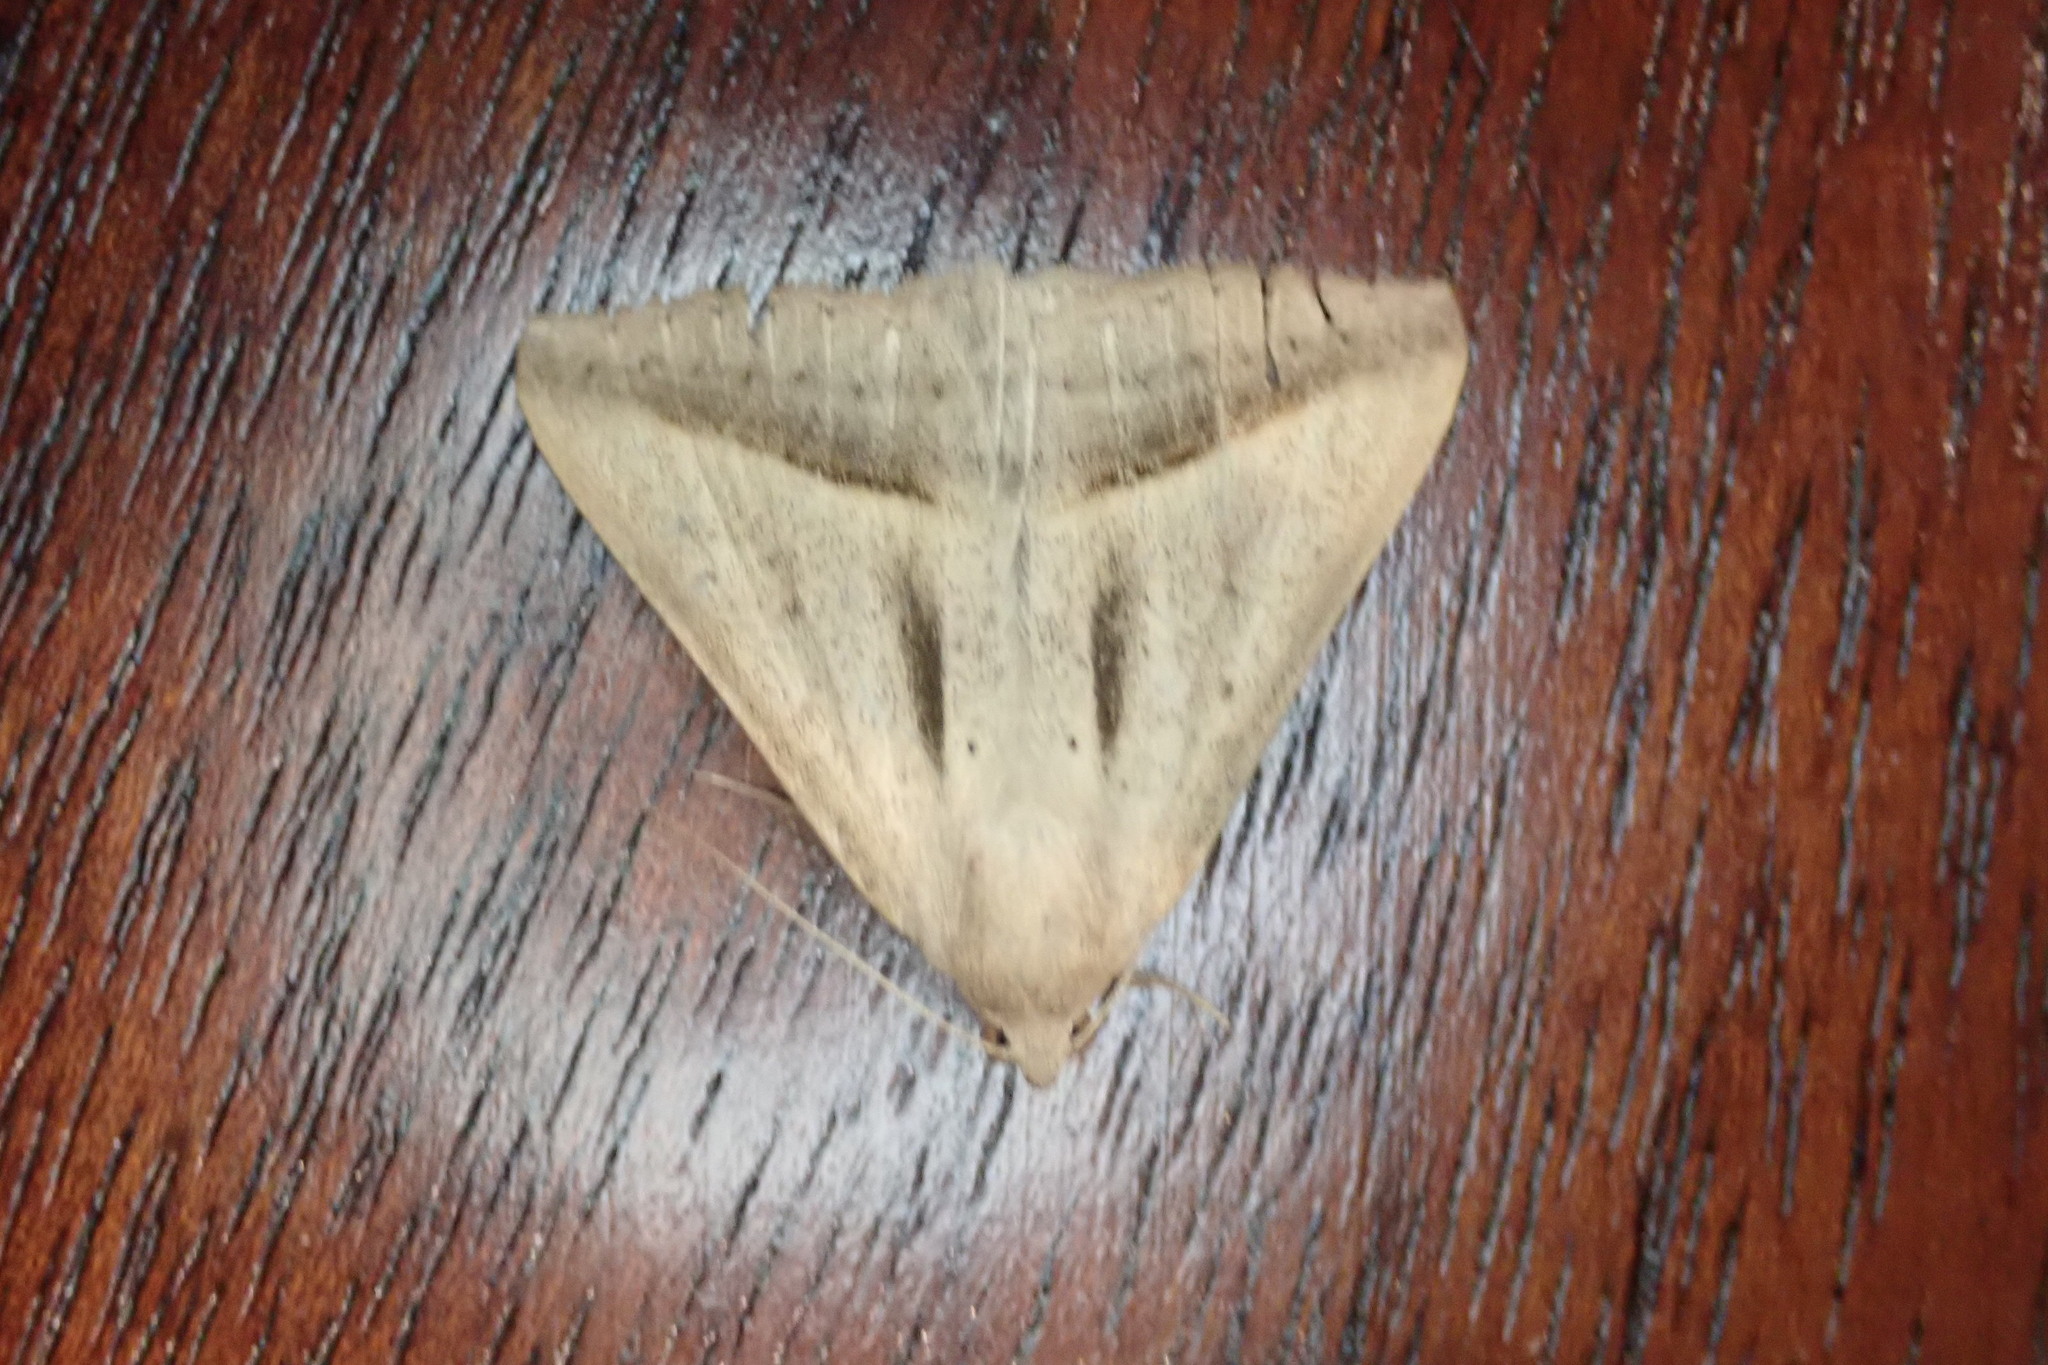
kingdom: Animalia
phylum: Arthropoda
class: Insecta
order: Lepidoptera
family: Erebidae
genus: Mocis
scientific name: Mocis proverai
